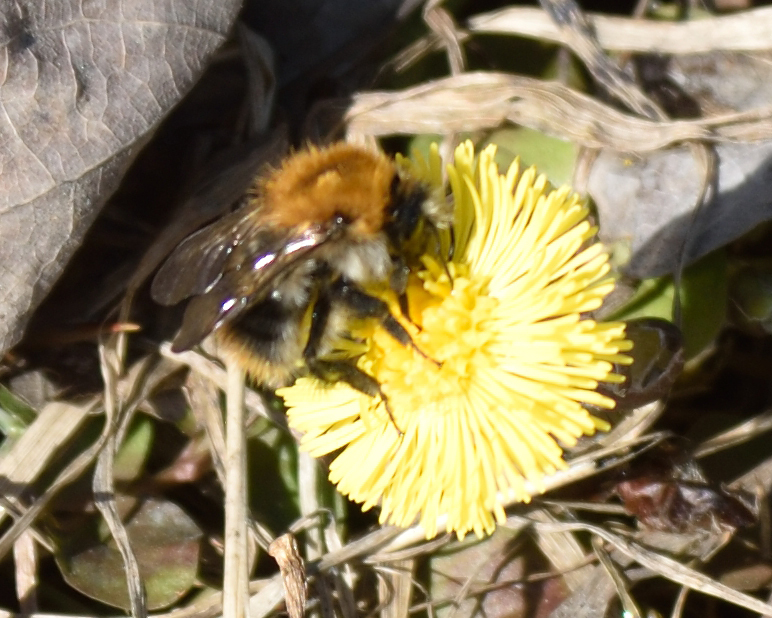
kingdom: Animalia
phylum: Arthropoda
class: Insecta
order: Hymenoptera
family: Apidae
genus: Bombus
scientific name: Bombus pascuorum
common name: Common carder bee
